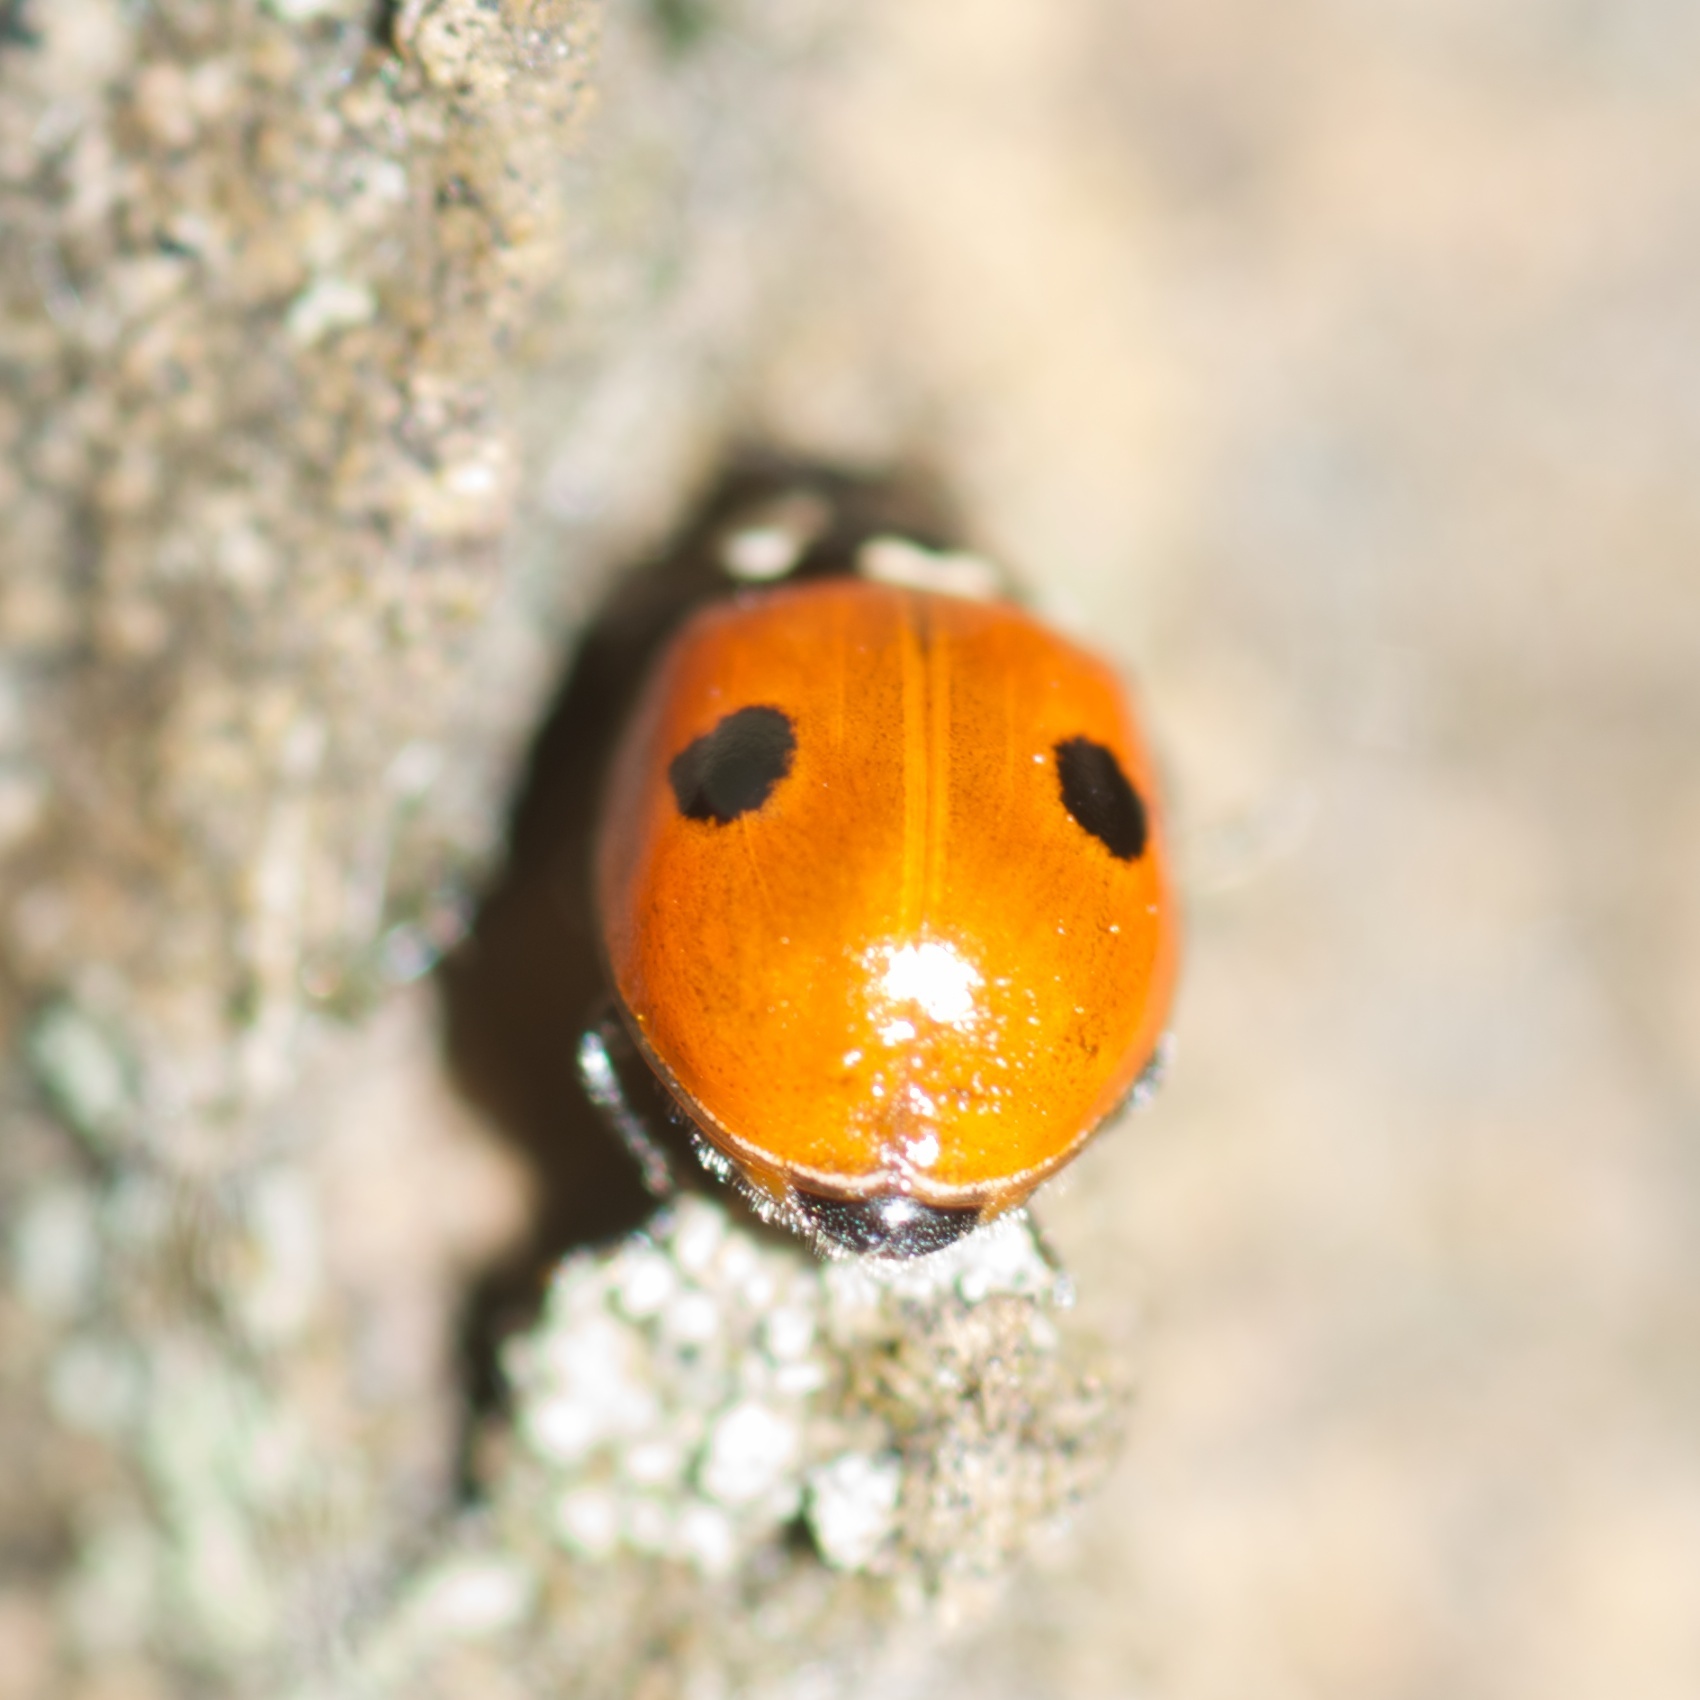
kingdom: Animalia
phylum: Arthropoda
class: Insecta
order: Coleoptera
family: Coccinellidae
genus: Adalia
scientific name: Adalia bipunctata
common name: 2-spot ladybird
